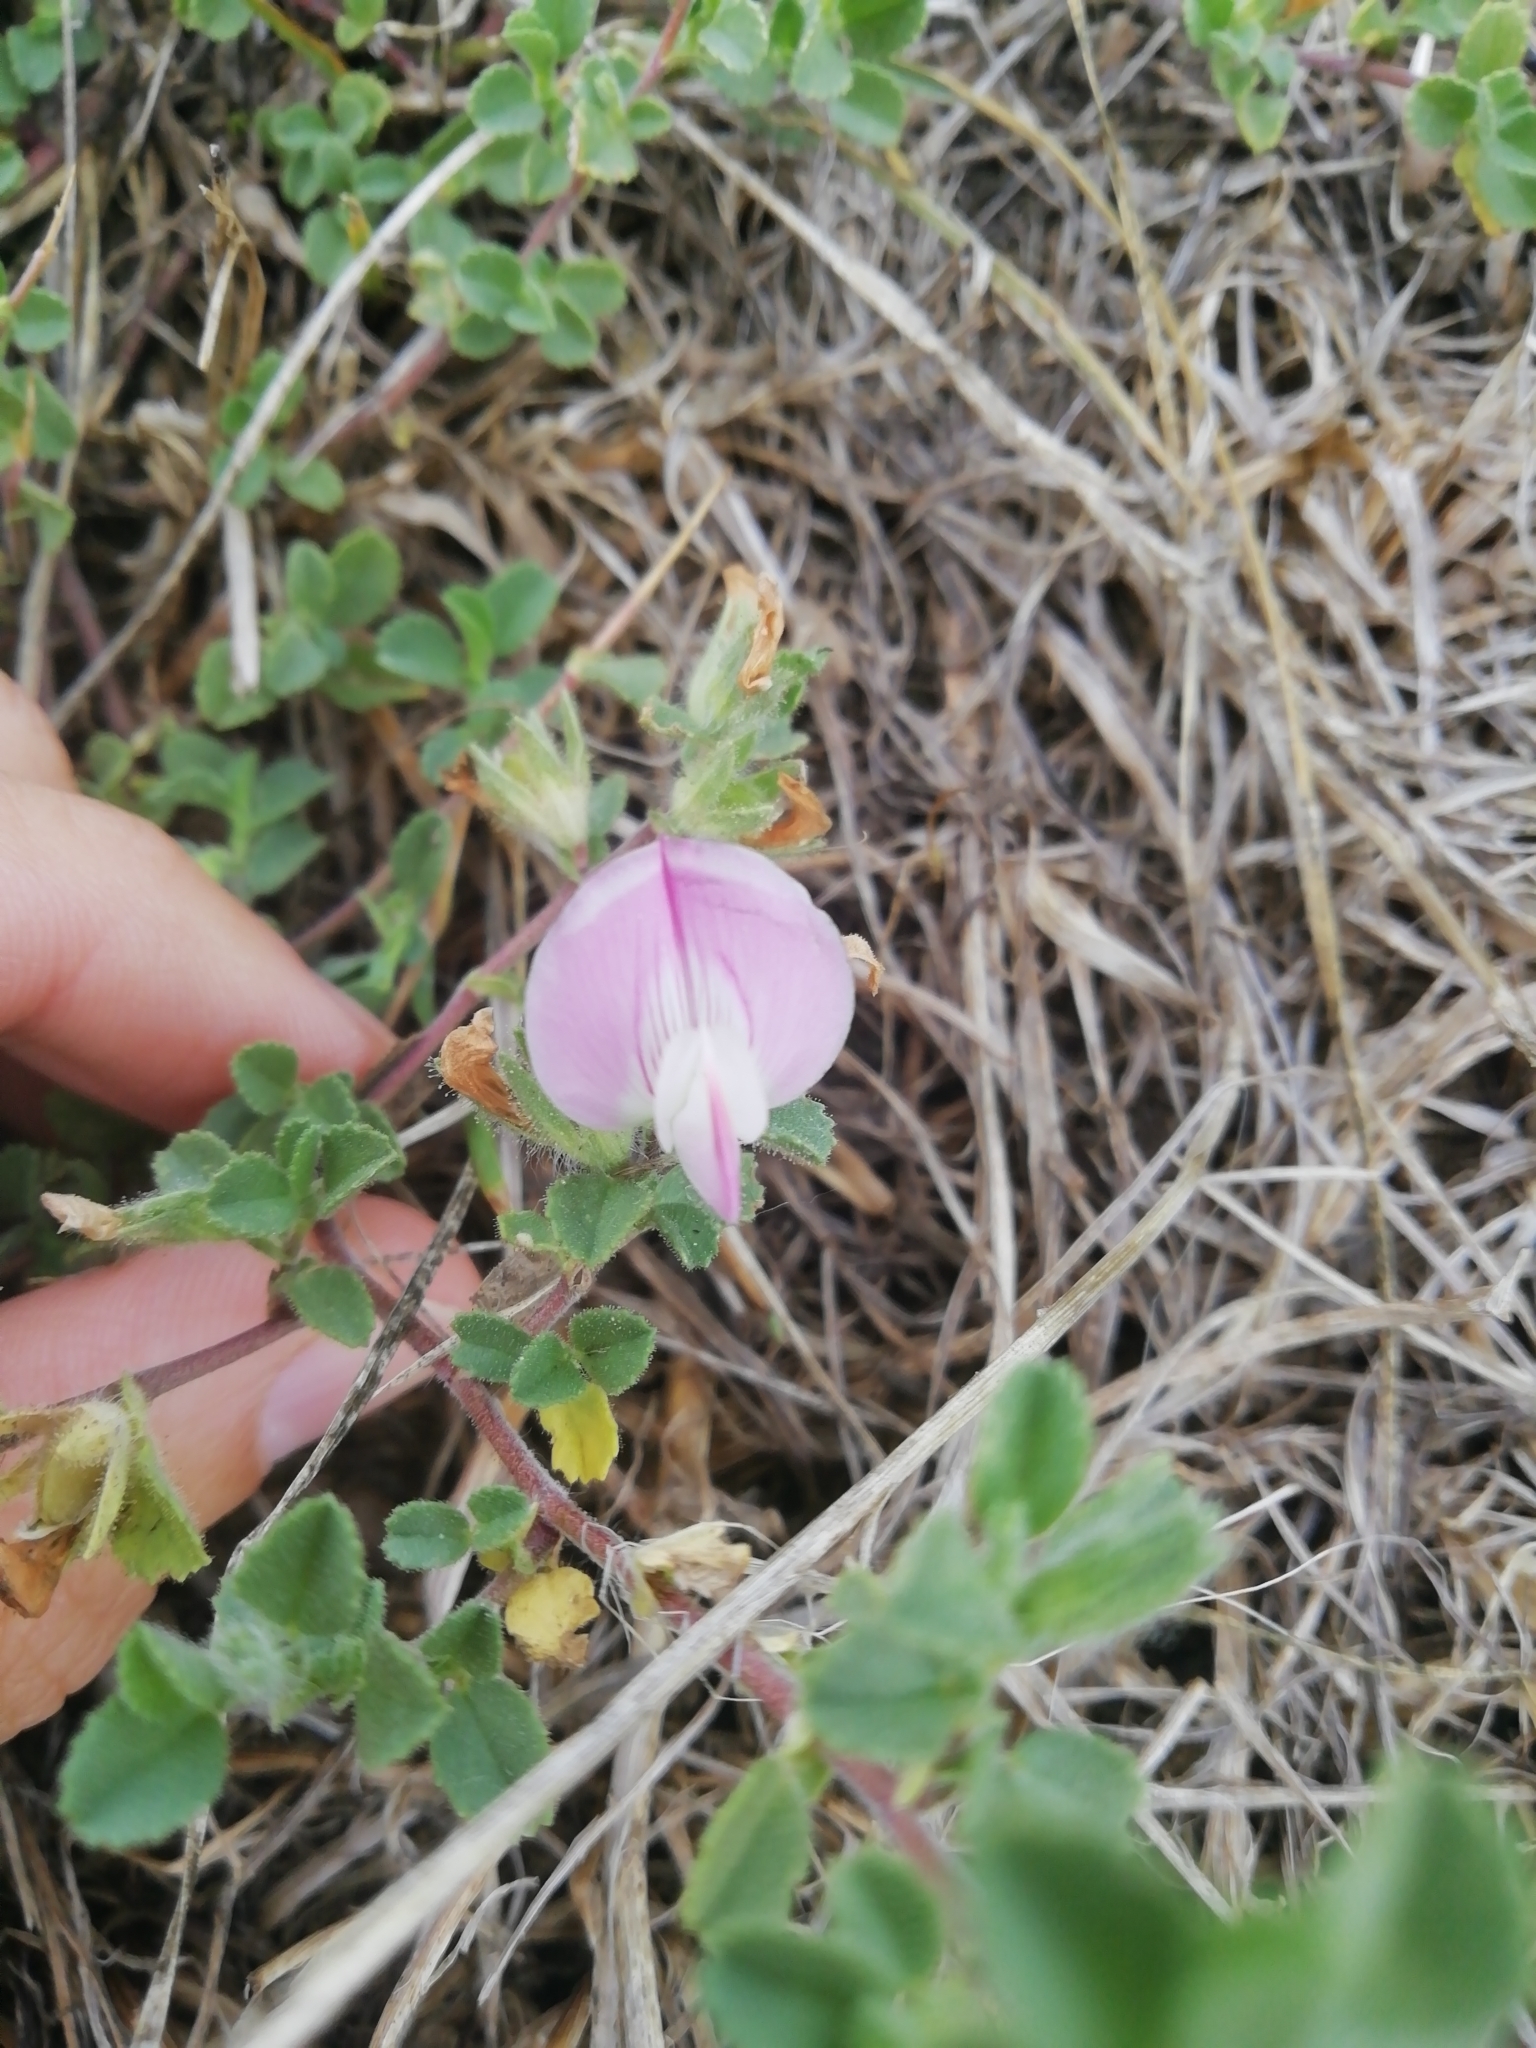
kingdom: Plantae
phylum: Tracheophyta
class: Magnoliopsida
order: Fabales
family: Fabaceae
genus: Ononis
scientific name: Ononis spinosa
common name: Spiny restharrow
